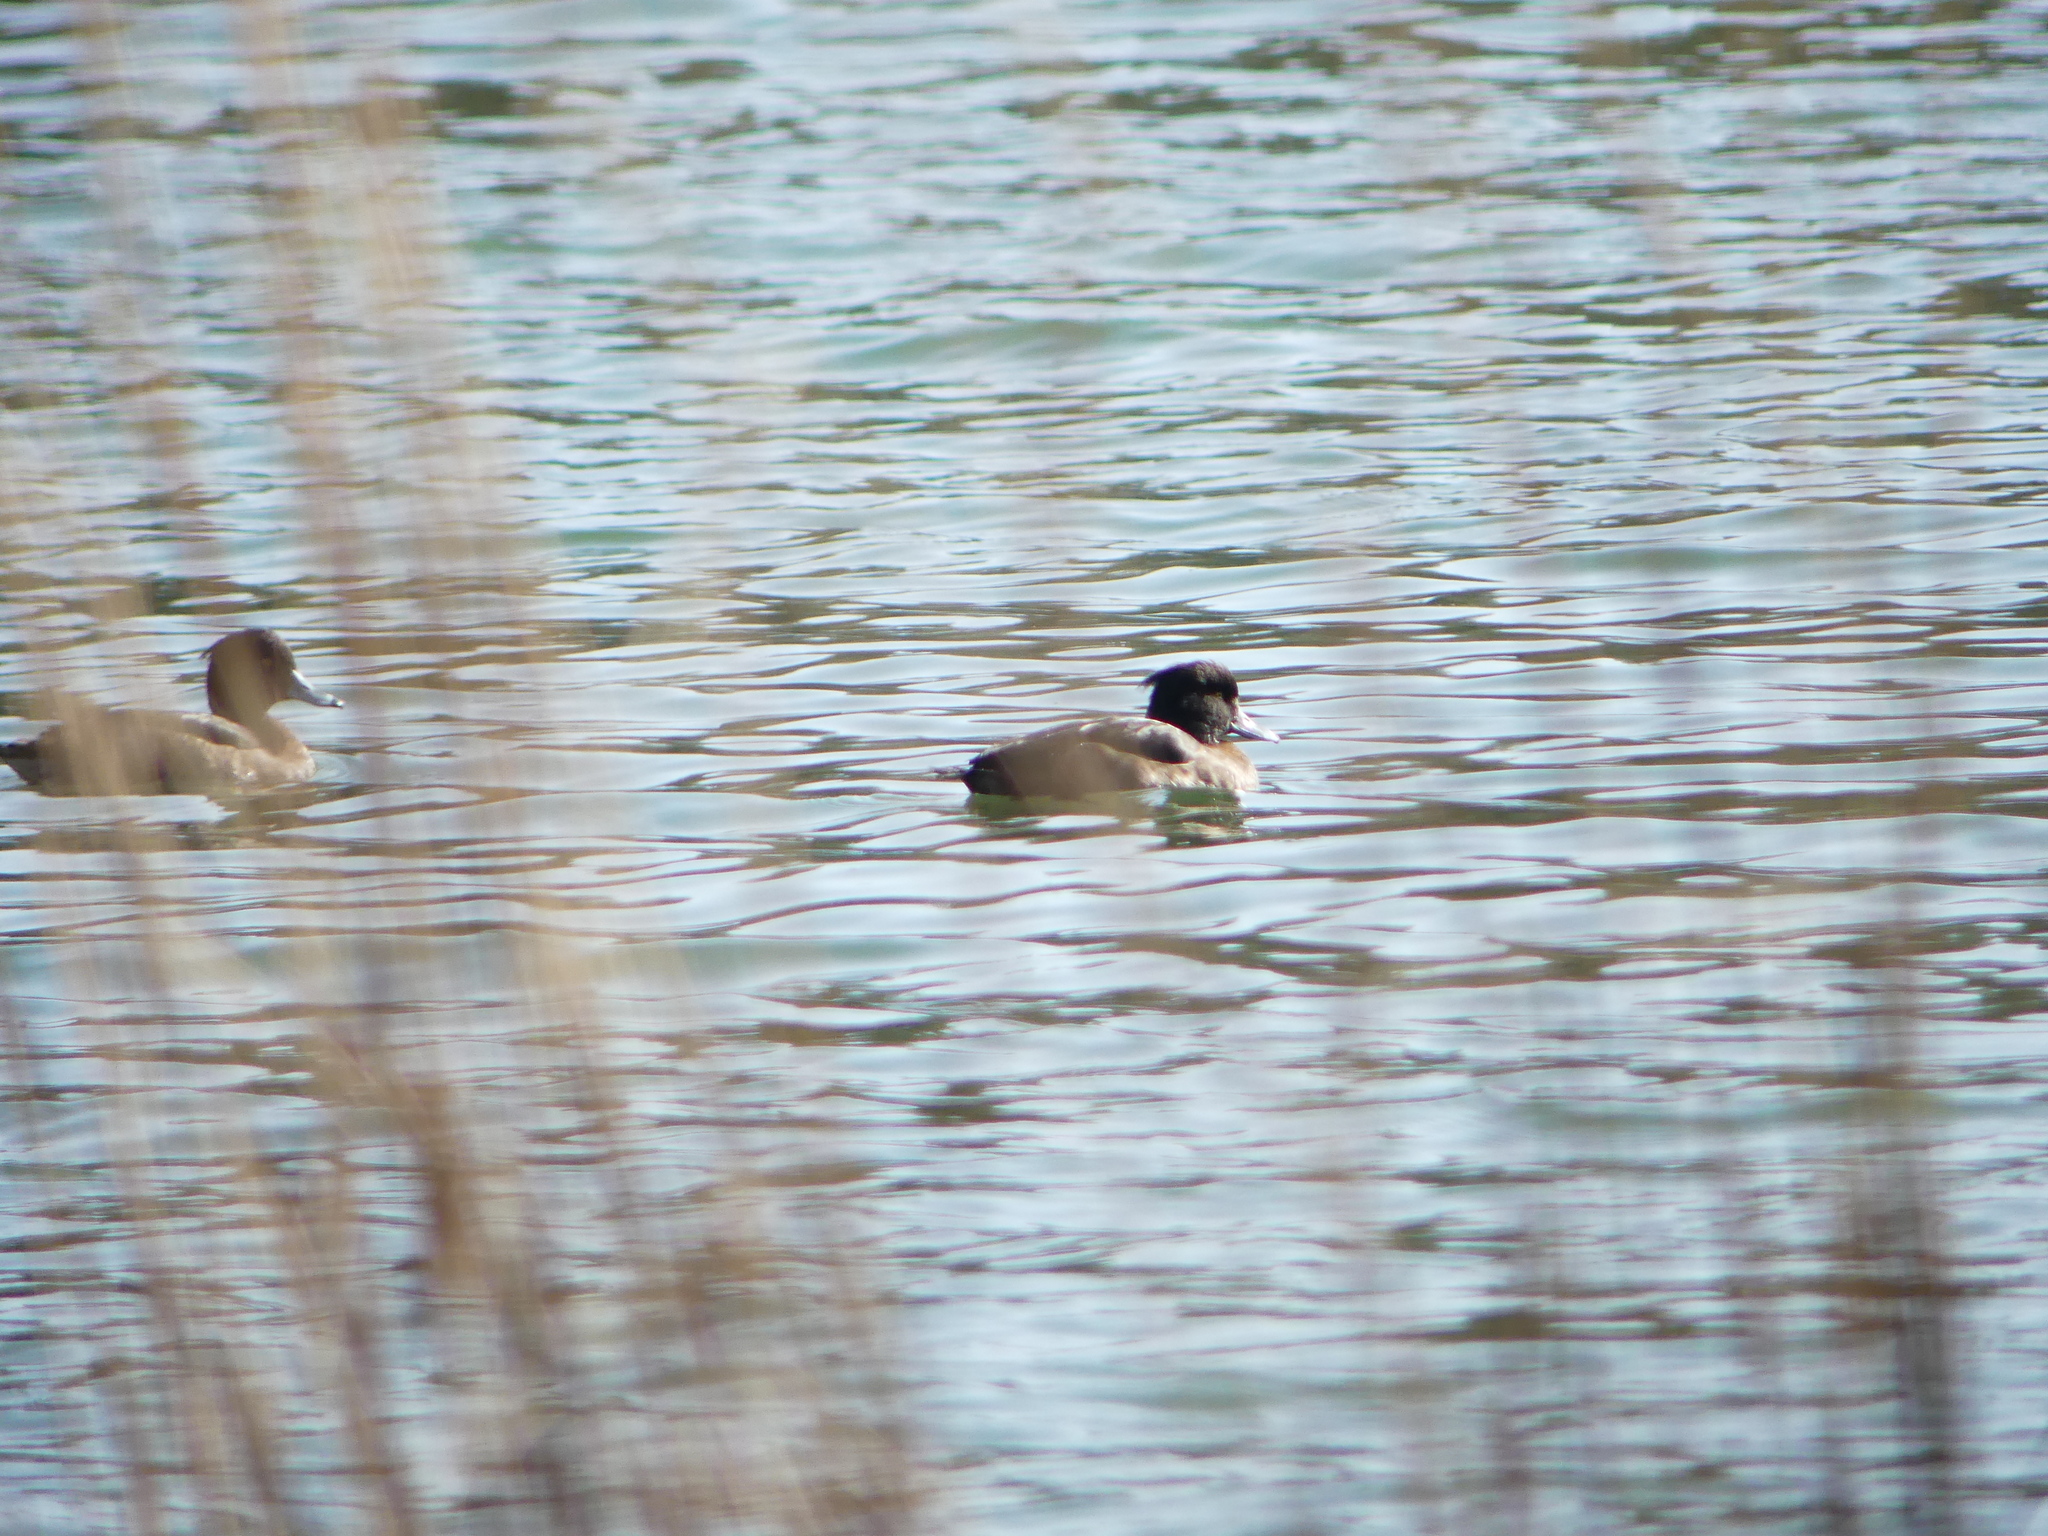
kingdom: Animalia
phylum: Chordata
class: Aves
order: Anseriformes
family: Anatidae
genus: Aythya
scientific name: Aythya fuligula
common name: Tufted duck
